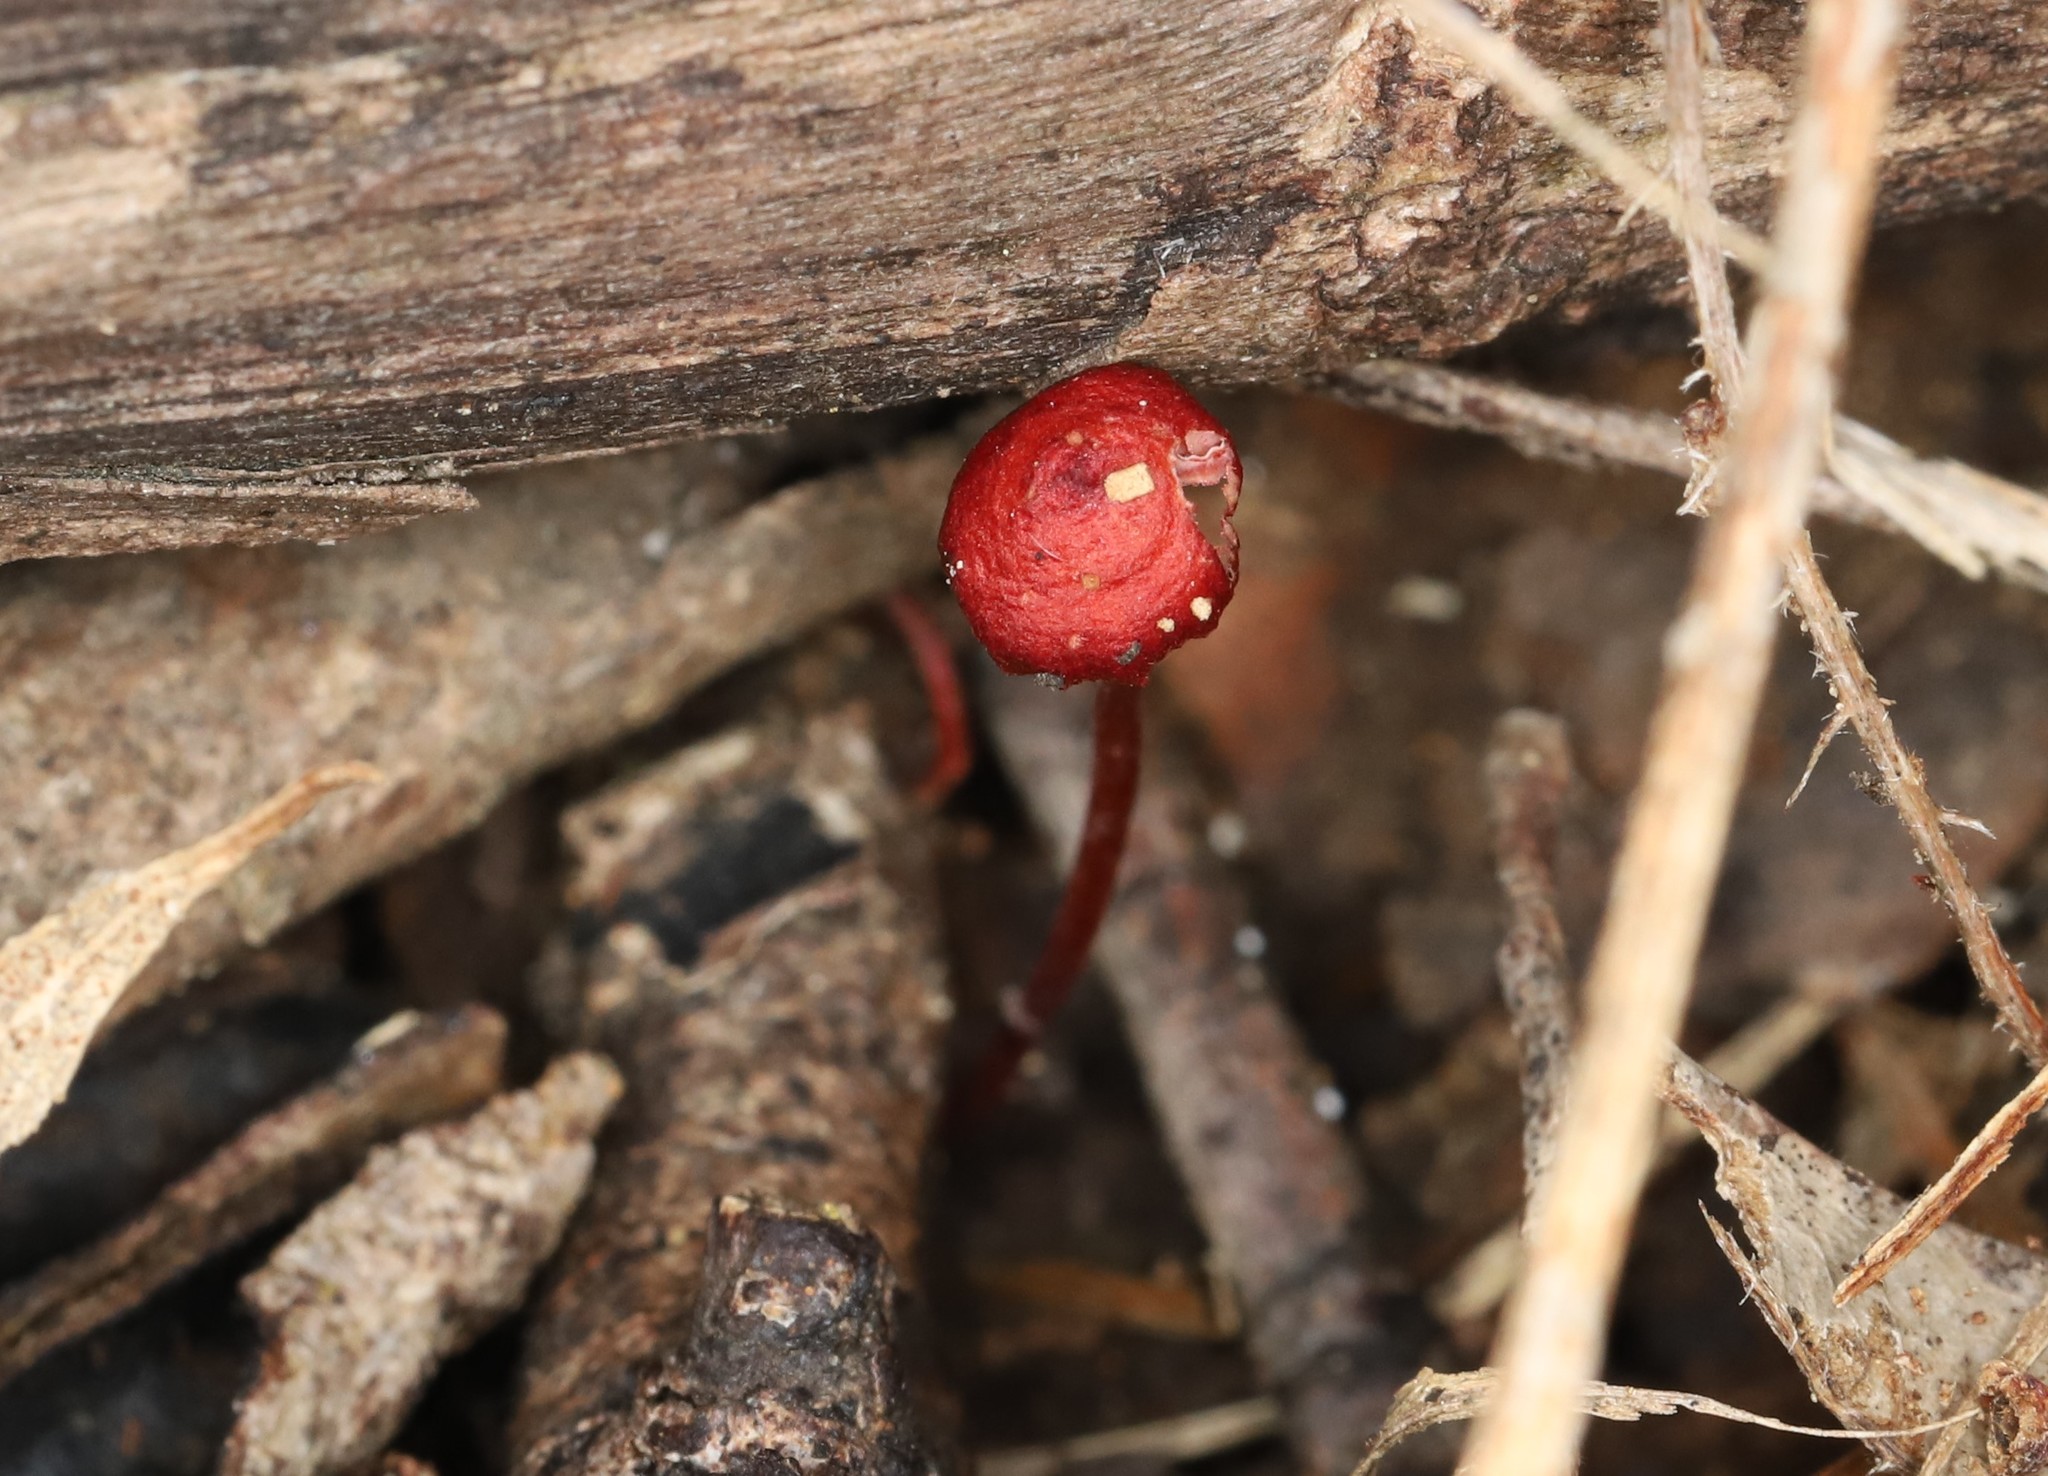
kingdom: Fungi
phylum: Basidiomycota
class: Agaricomycetes
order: Agaricales
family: Mycenaceae
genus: Cruentomycena
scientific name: Cruentomycena viscidocruenta
